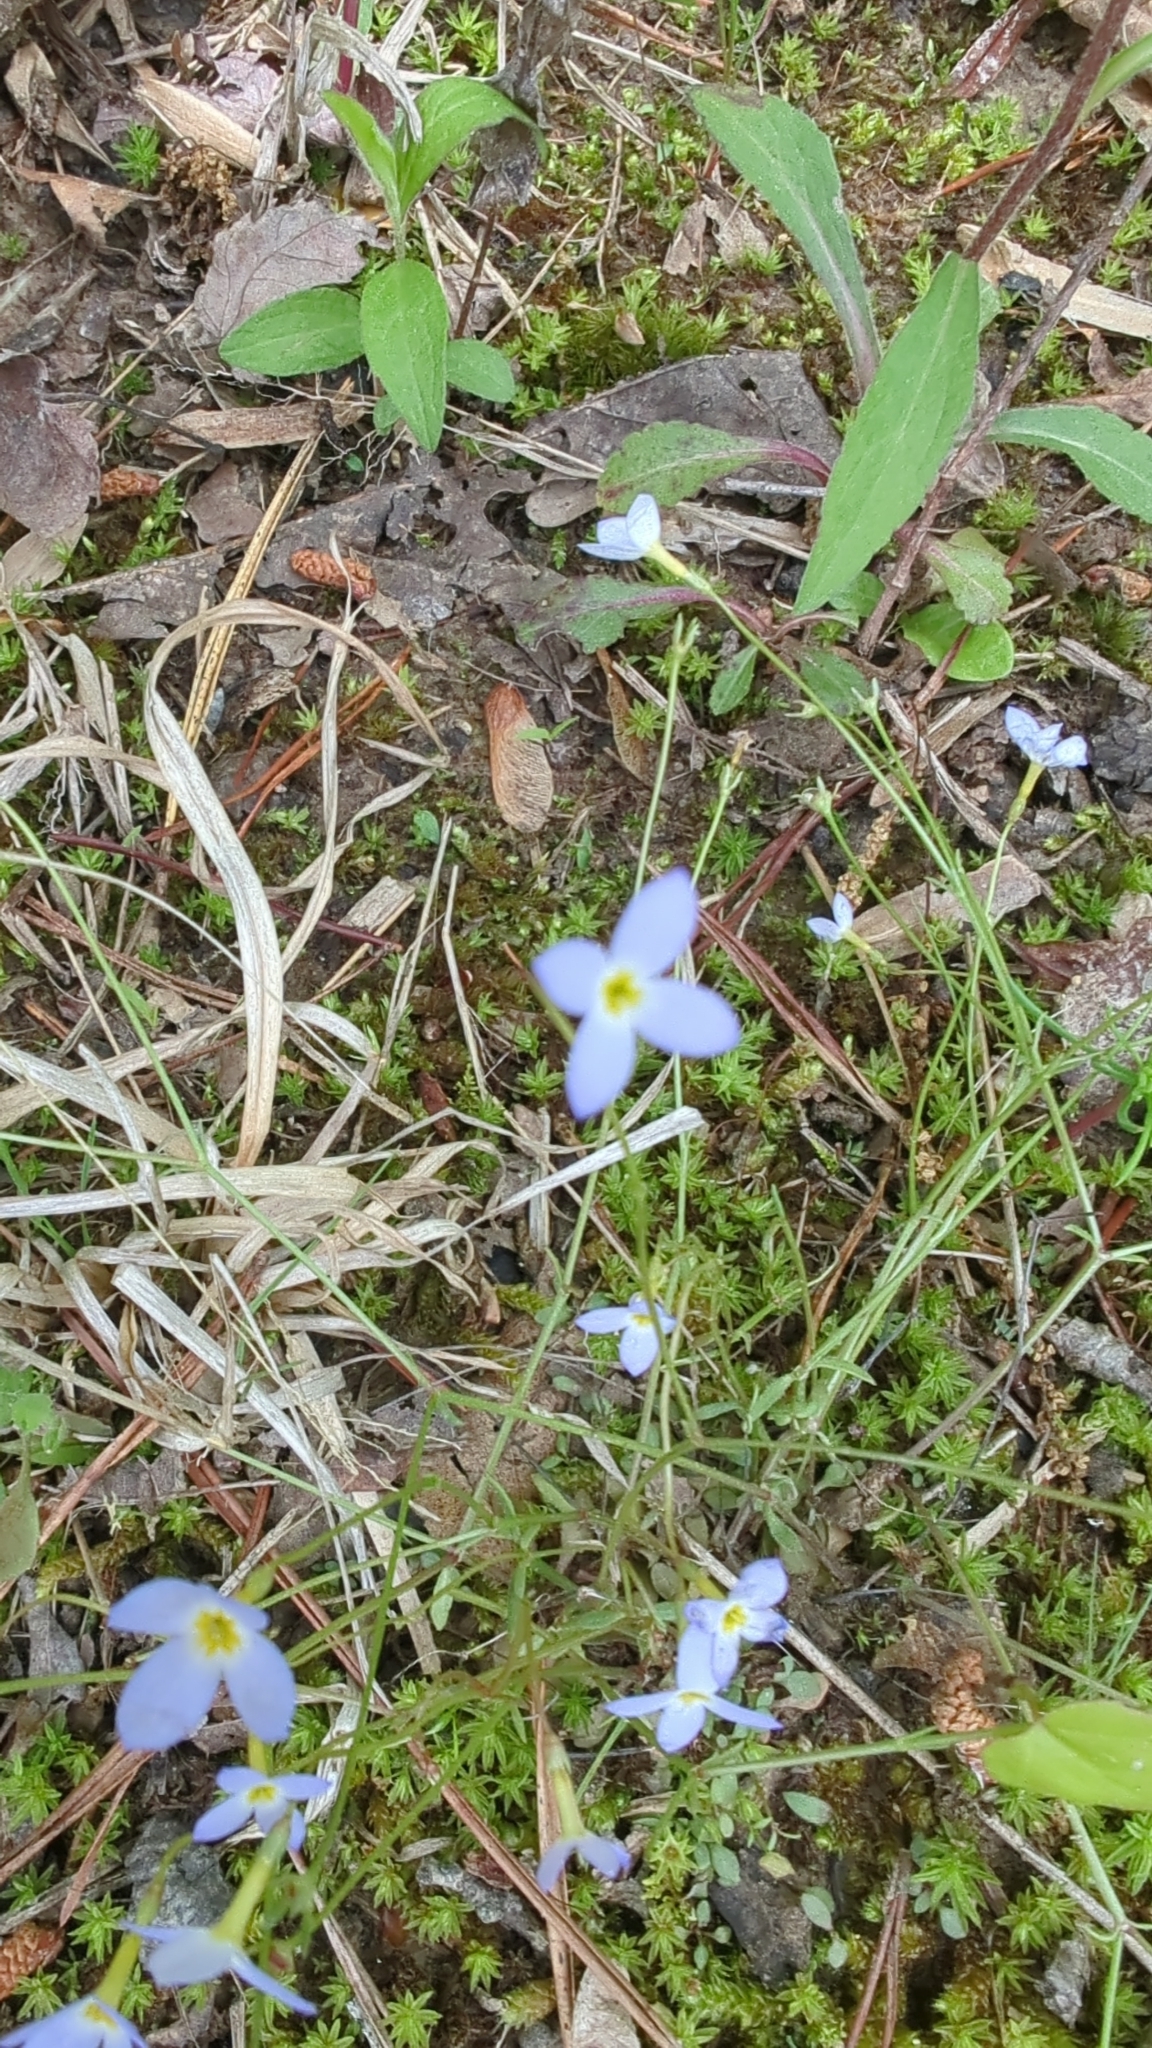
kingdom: Plantae
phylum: Tracheophyta
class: Magnoliopsida
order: Gentianales
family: Rubiaceae
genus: Houstonia
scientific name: Houstonia caerulea
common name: Bluets
